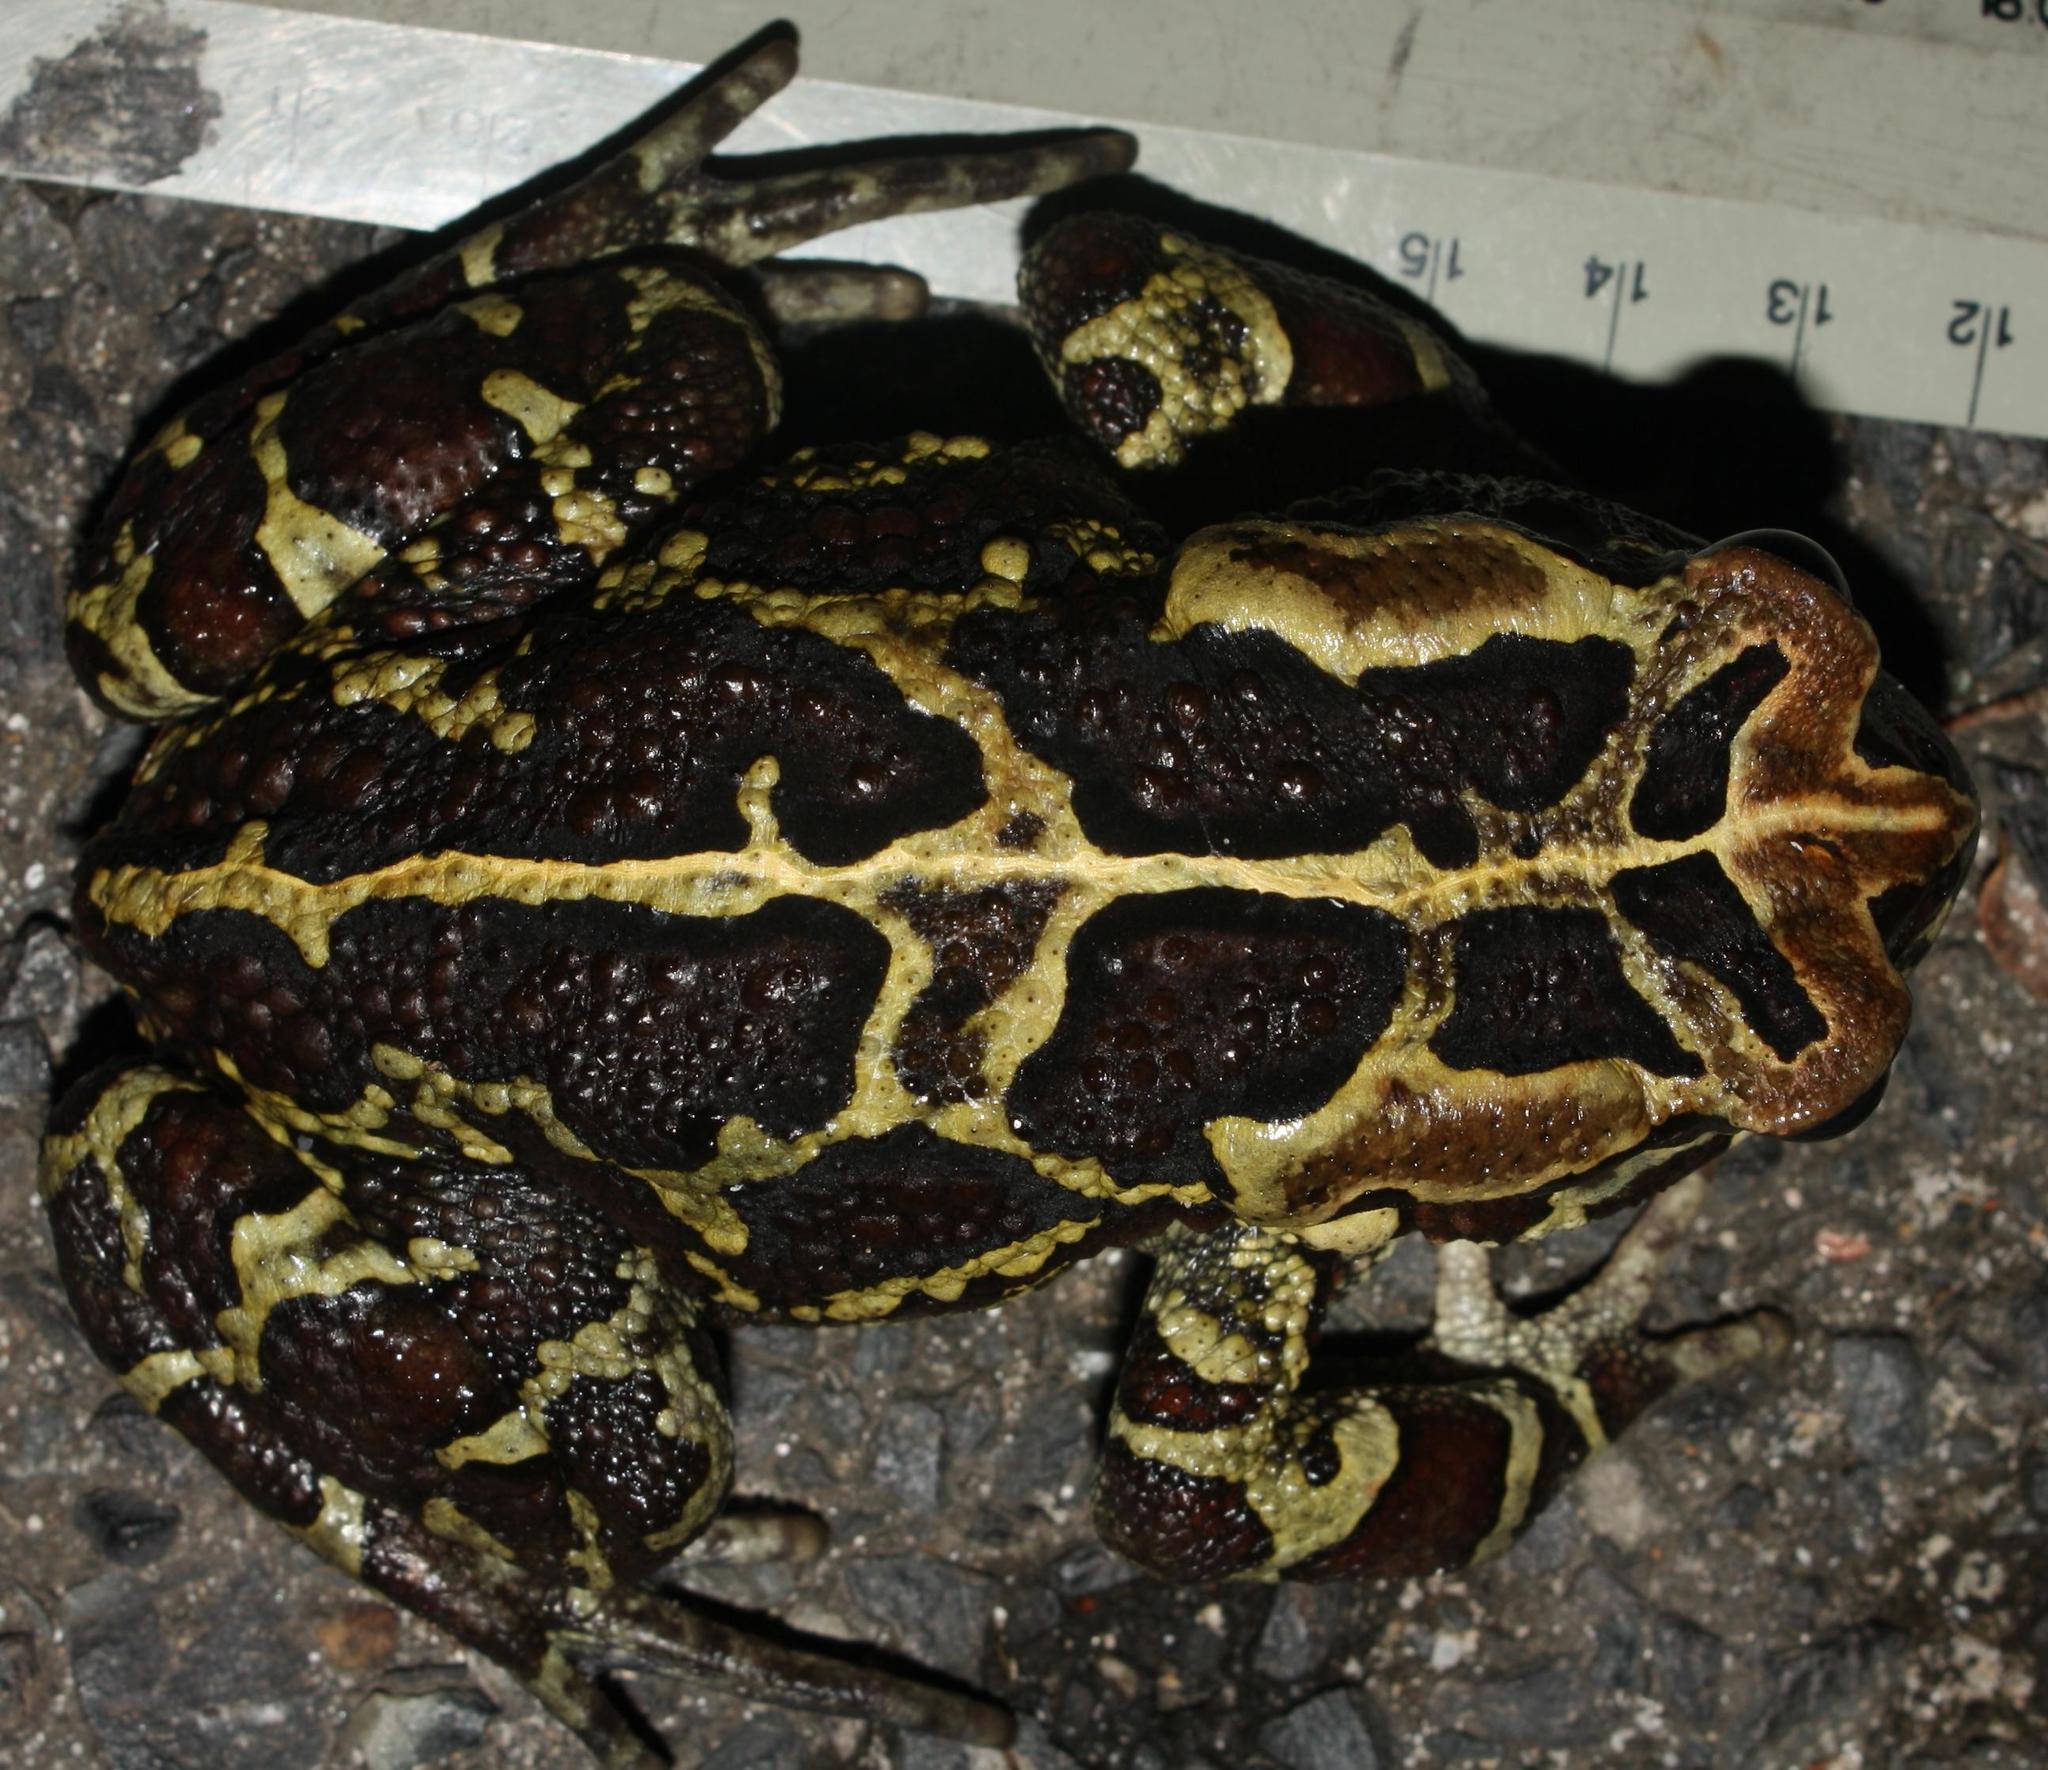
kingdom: Animalia
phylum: Chordata
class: Amphibia
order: Anura
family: Bufonidae
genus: Sclerophrys
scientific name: Sclerophrys pantherina
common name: Panther toad
